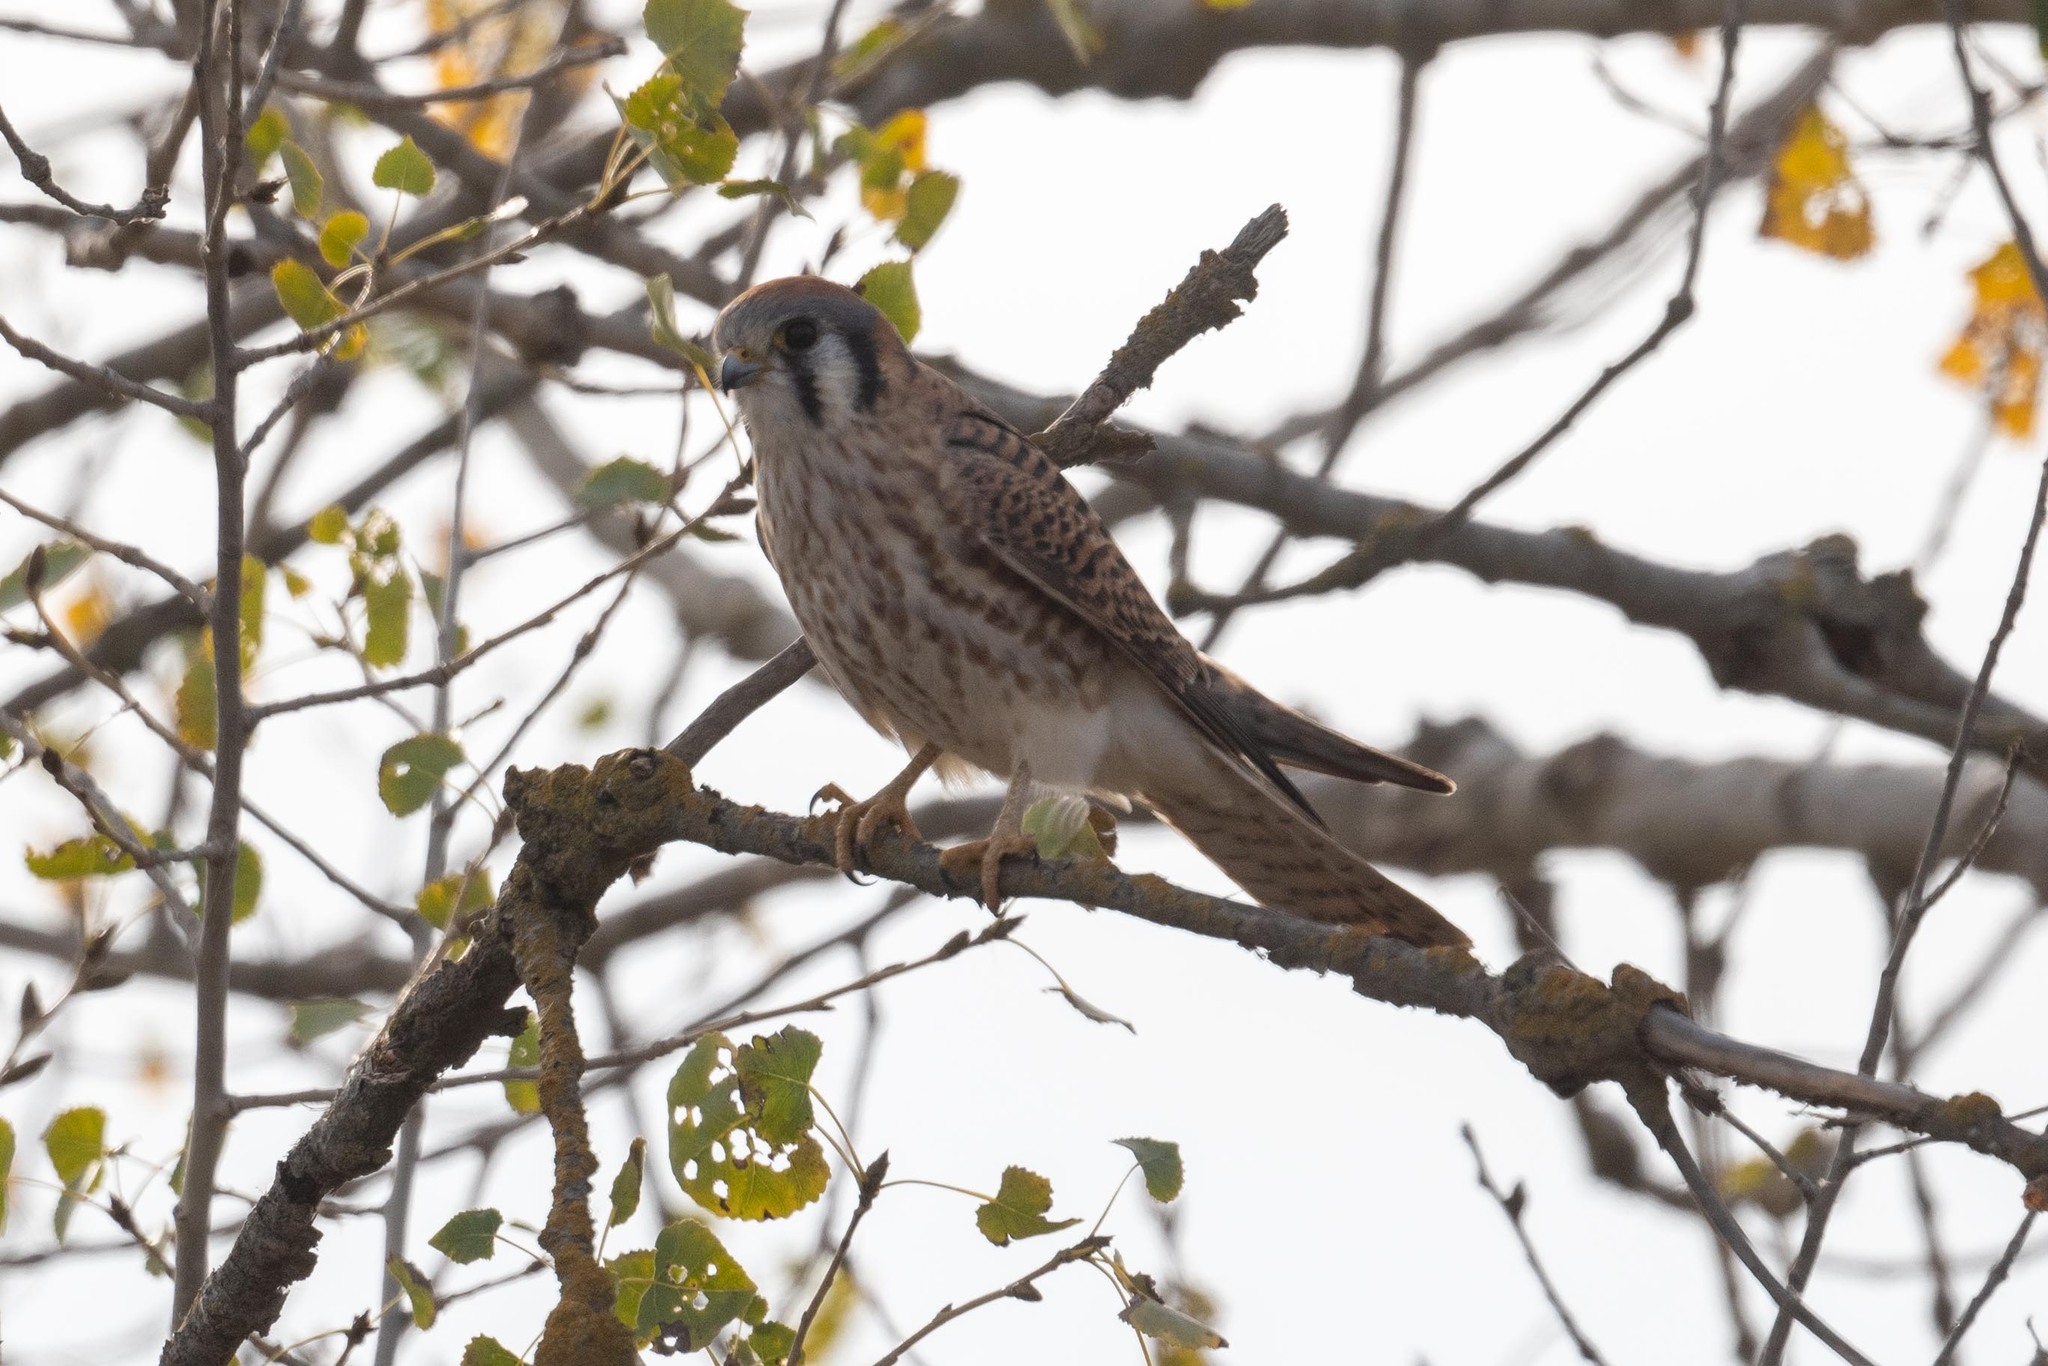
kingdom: Animalia
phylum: Chordata
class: Aves
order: Falconiformes
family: Falconidae
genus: Falco
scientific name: Falco sparverius
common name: American kestrel
